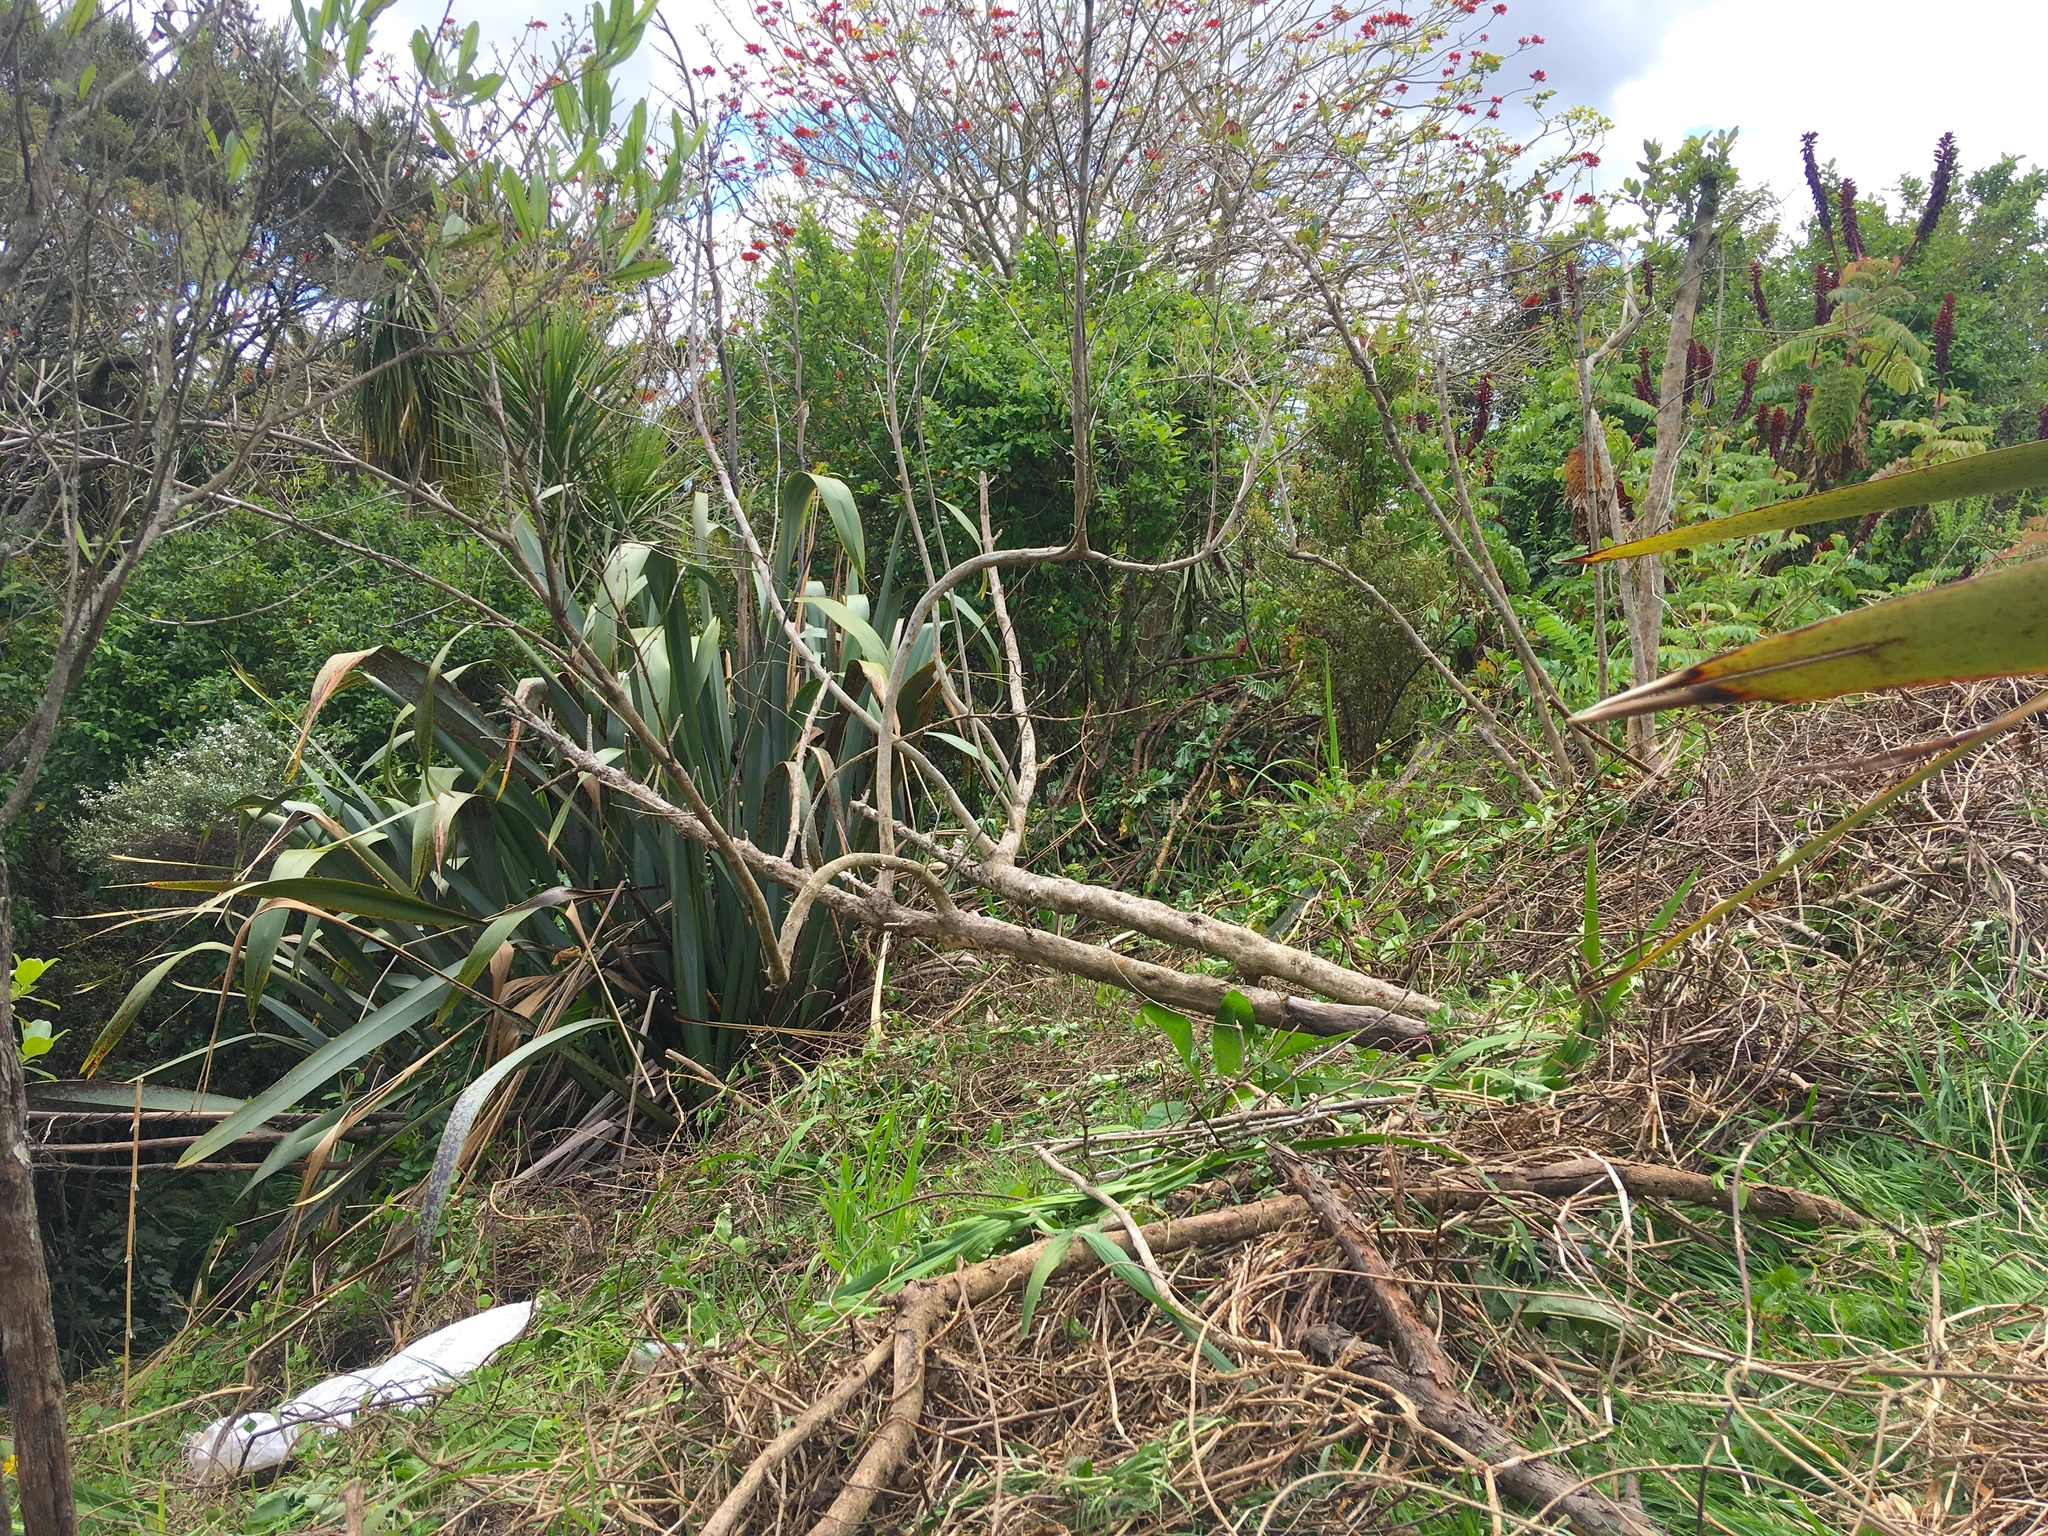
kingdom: Plantae
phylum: Tracheophyta
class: Magnoliopsida
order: Gentianales
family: Rubiaceae
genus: Coprosma
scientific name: Coprosma robusta
